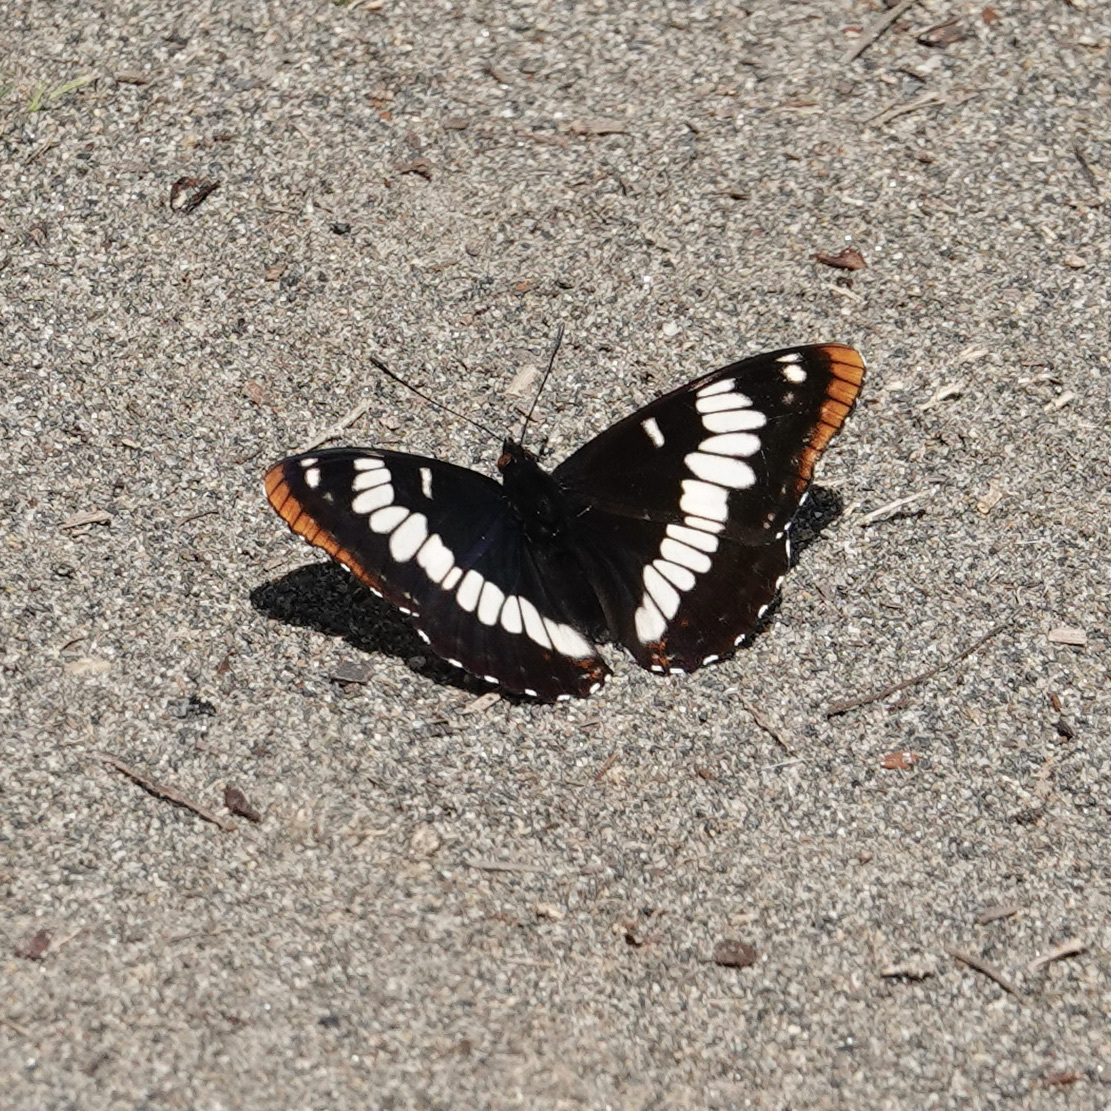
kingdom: Animalia
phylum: Arthropoda
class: Insecta
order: Lepidoptera
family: Nymphalidae
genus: Limenitis
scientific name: Limenitis lorquini
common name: Lorquin's admiral
